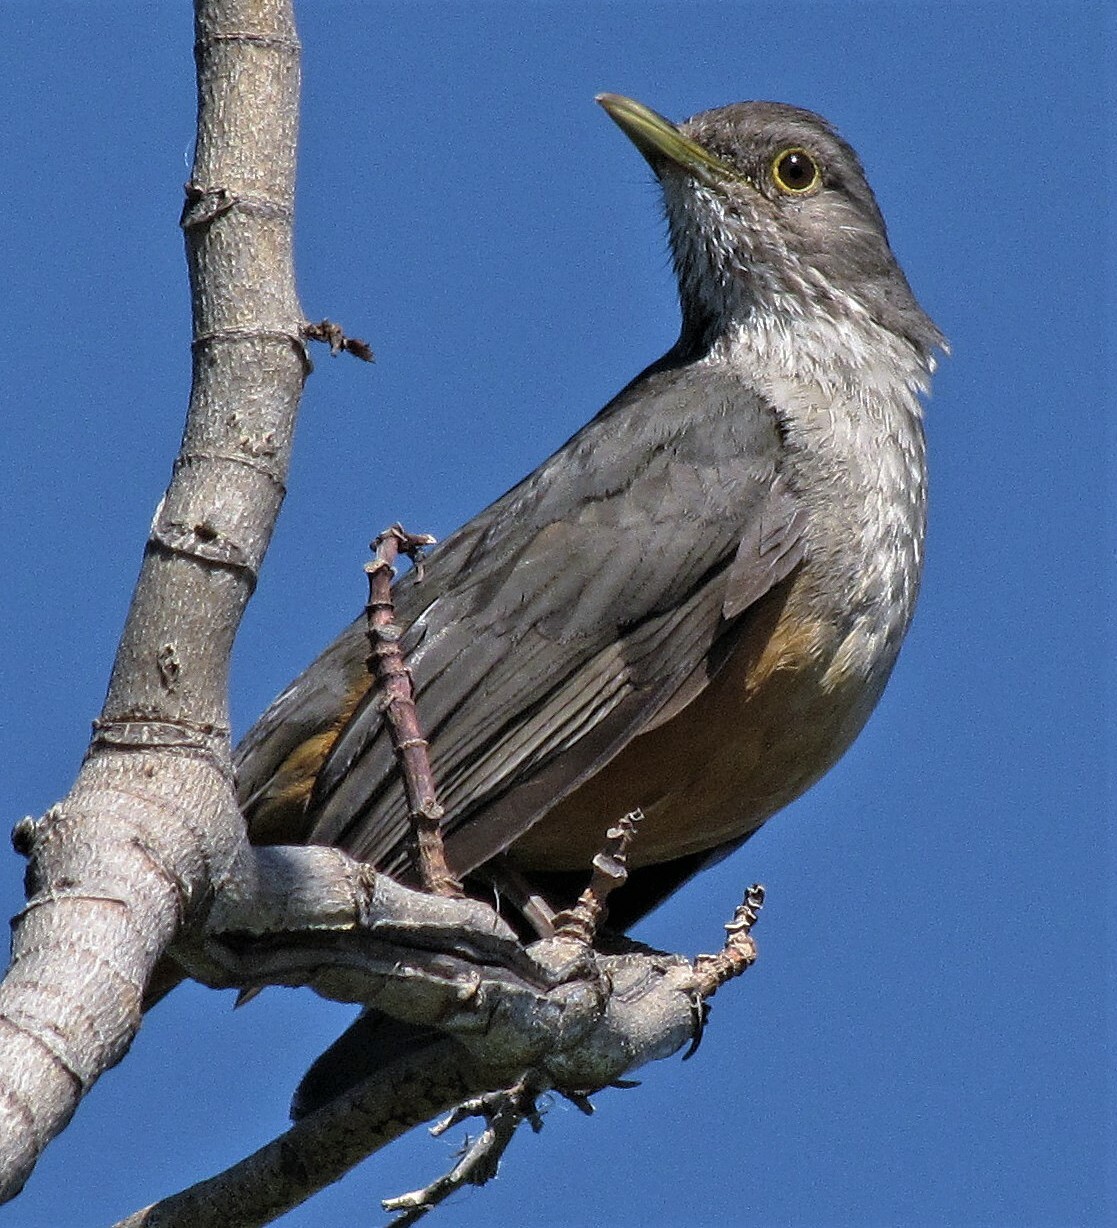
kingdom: Animalia
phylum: Chordata
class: Aves
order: Passeriformes
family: Turdidae
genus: Turdus
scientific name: Turdus rufiventris
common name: Rufous-bellied thrush
